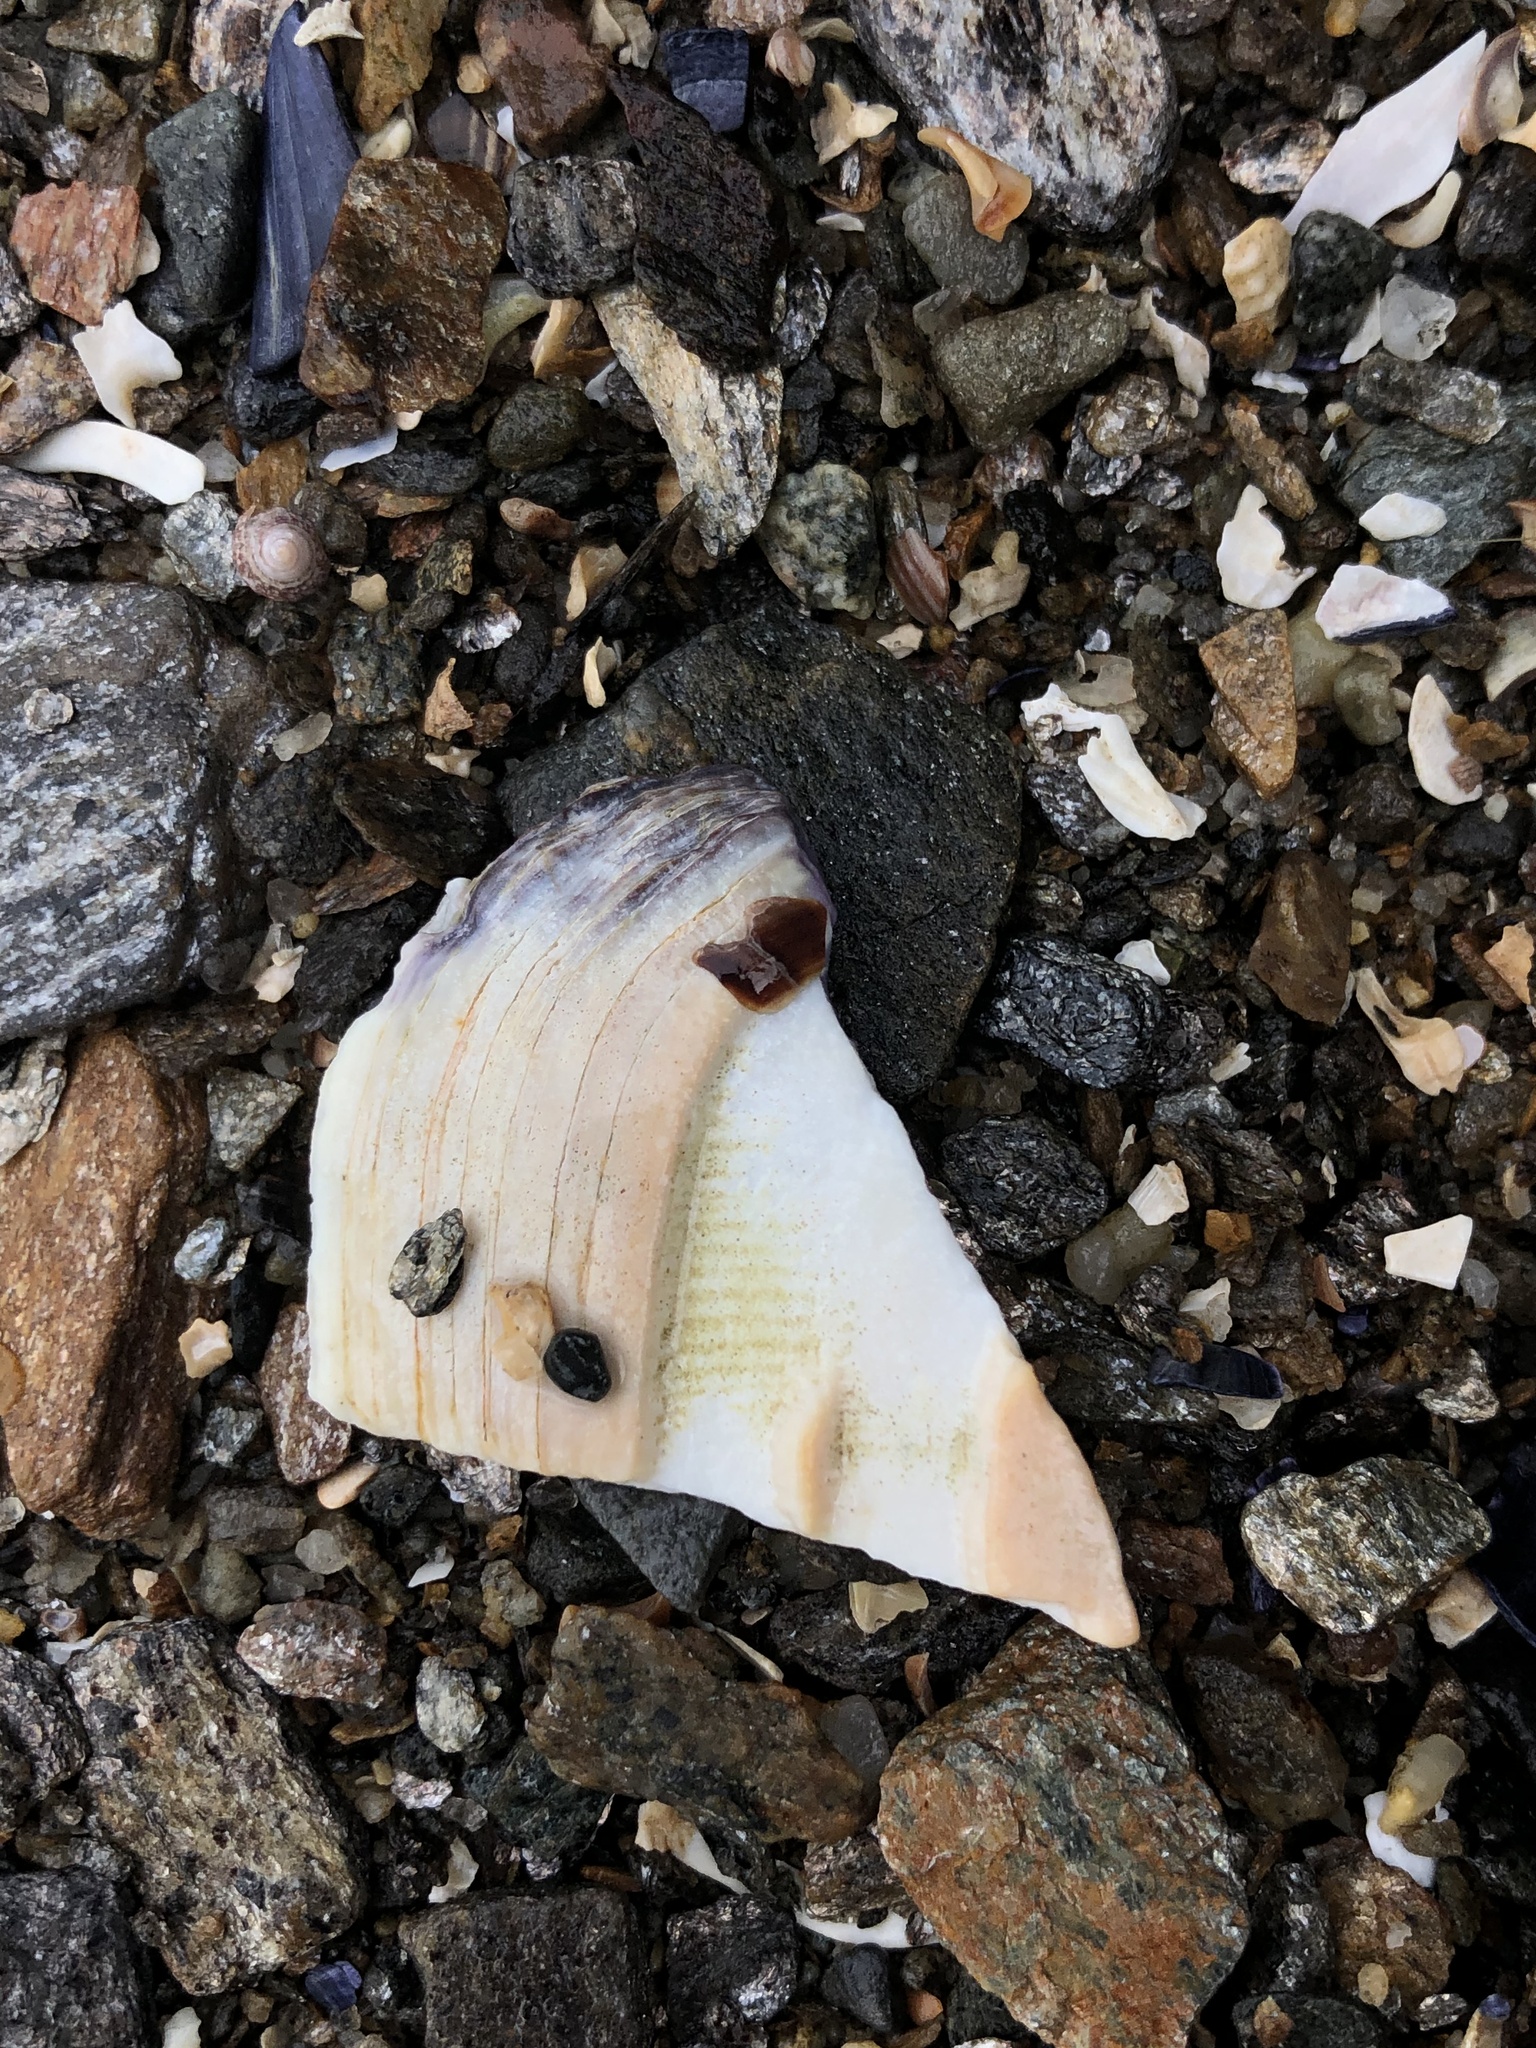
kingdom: Animalia
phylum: Mollusca
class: Bivalvia
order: Venerida
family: Veneridae
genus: Mercenaria
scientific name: Mercenaria mercenaria
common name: American hard-shelled clam
